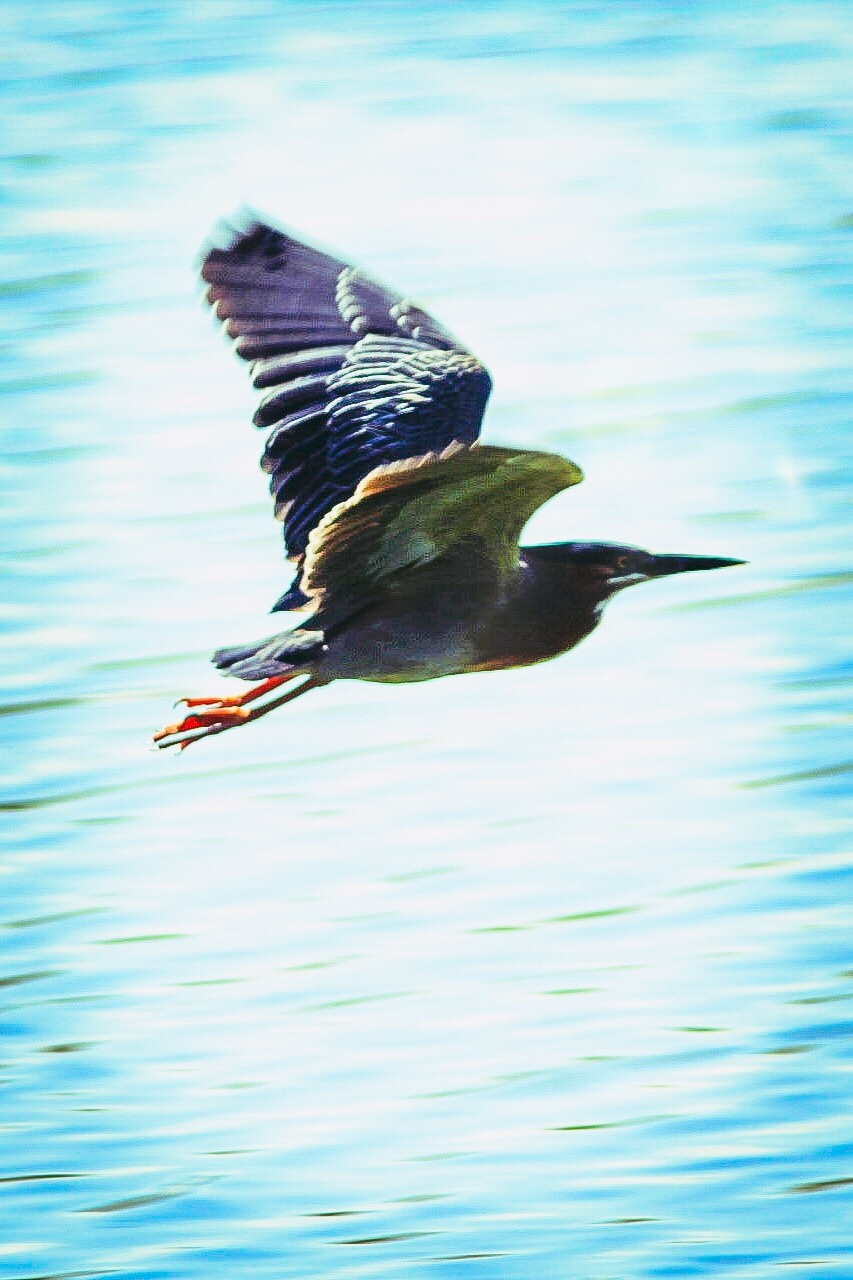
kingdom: Animalia
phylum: Chordata
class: Aves
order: Pelecaniformes
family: Ardeidae
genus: Butorides
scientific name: Butorides virescens
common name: Green heron
